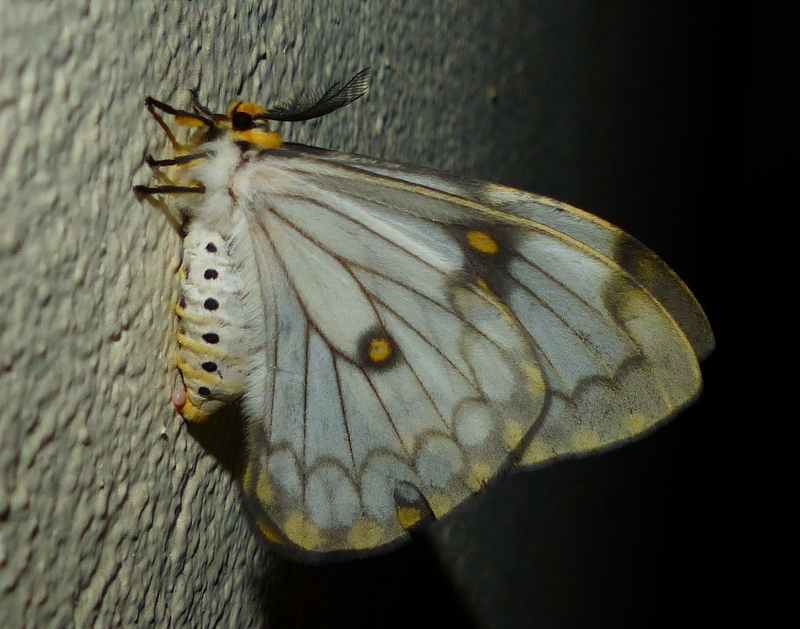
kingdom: Animalia
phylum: Arthropoda
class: Insecta
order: Lepidoptera
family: Saturniidae
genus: Pseudaphelia
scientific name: Pseudaphelia apollinaris
